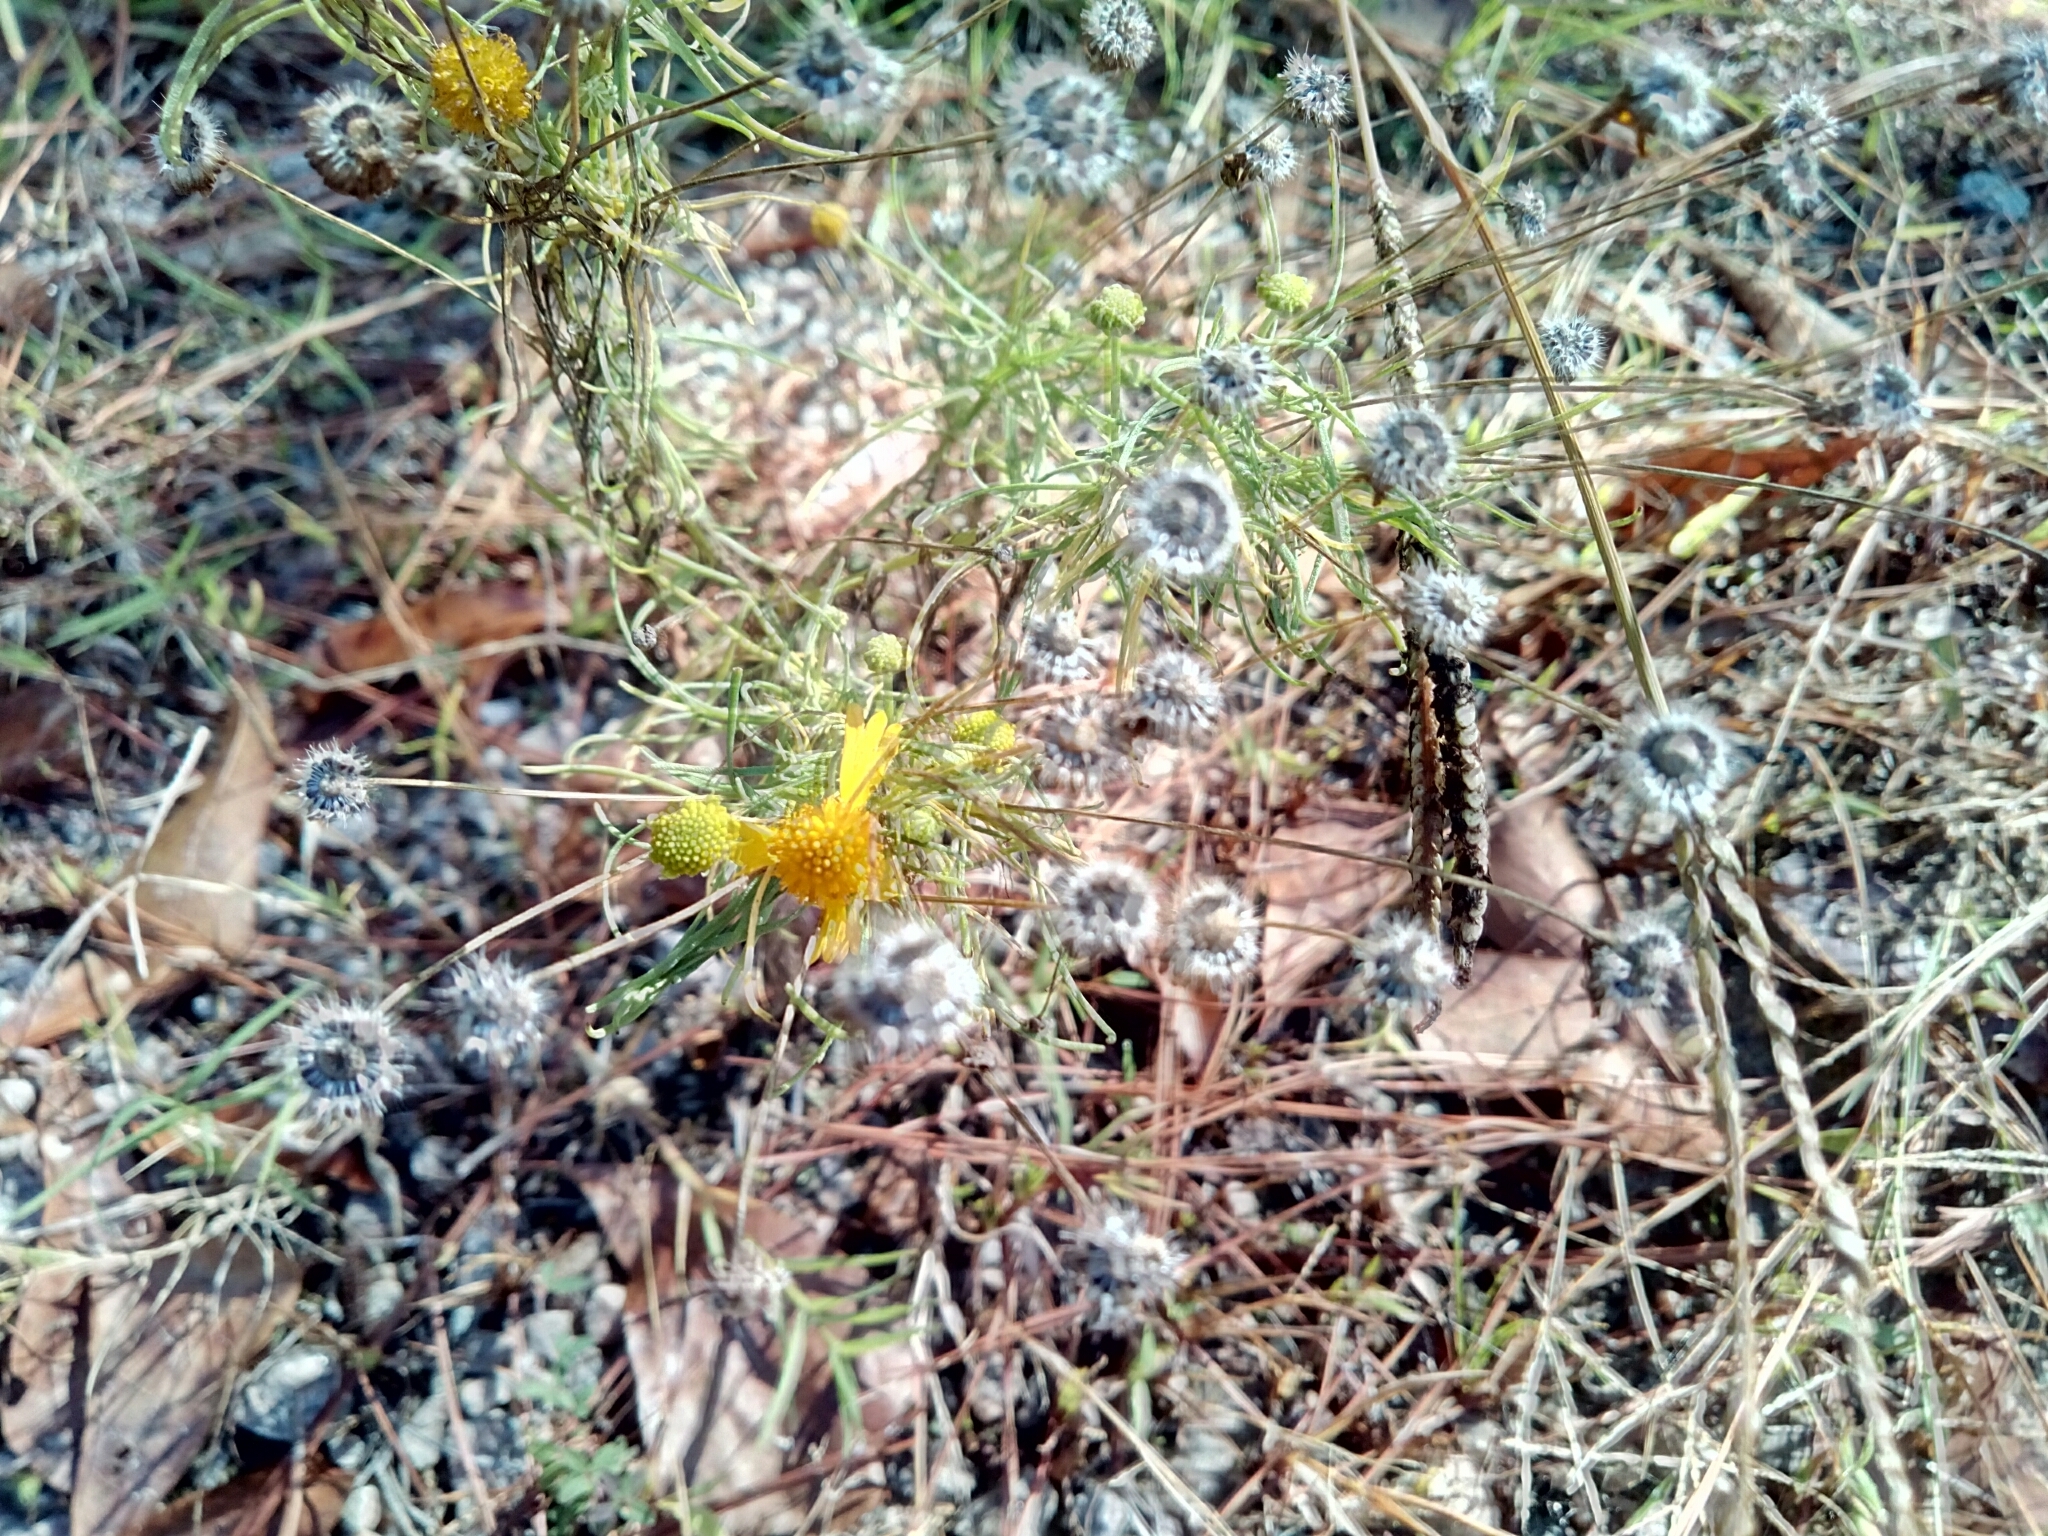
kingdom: Plantae
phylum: Tracheophyta
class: Magnoliopsida
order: Asterales
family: Asteraceae
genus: Helenium
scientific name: Helenium amarum
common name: Bitter sneezeweed
